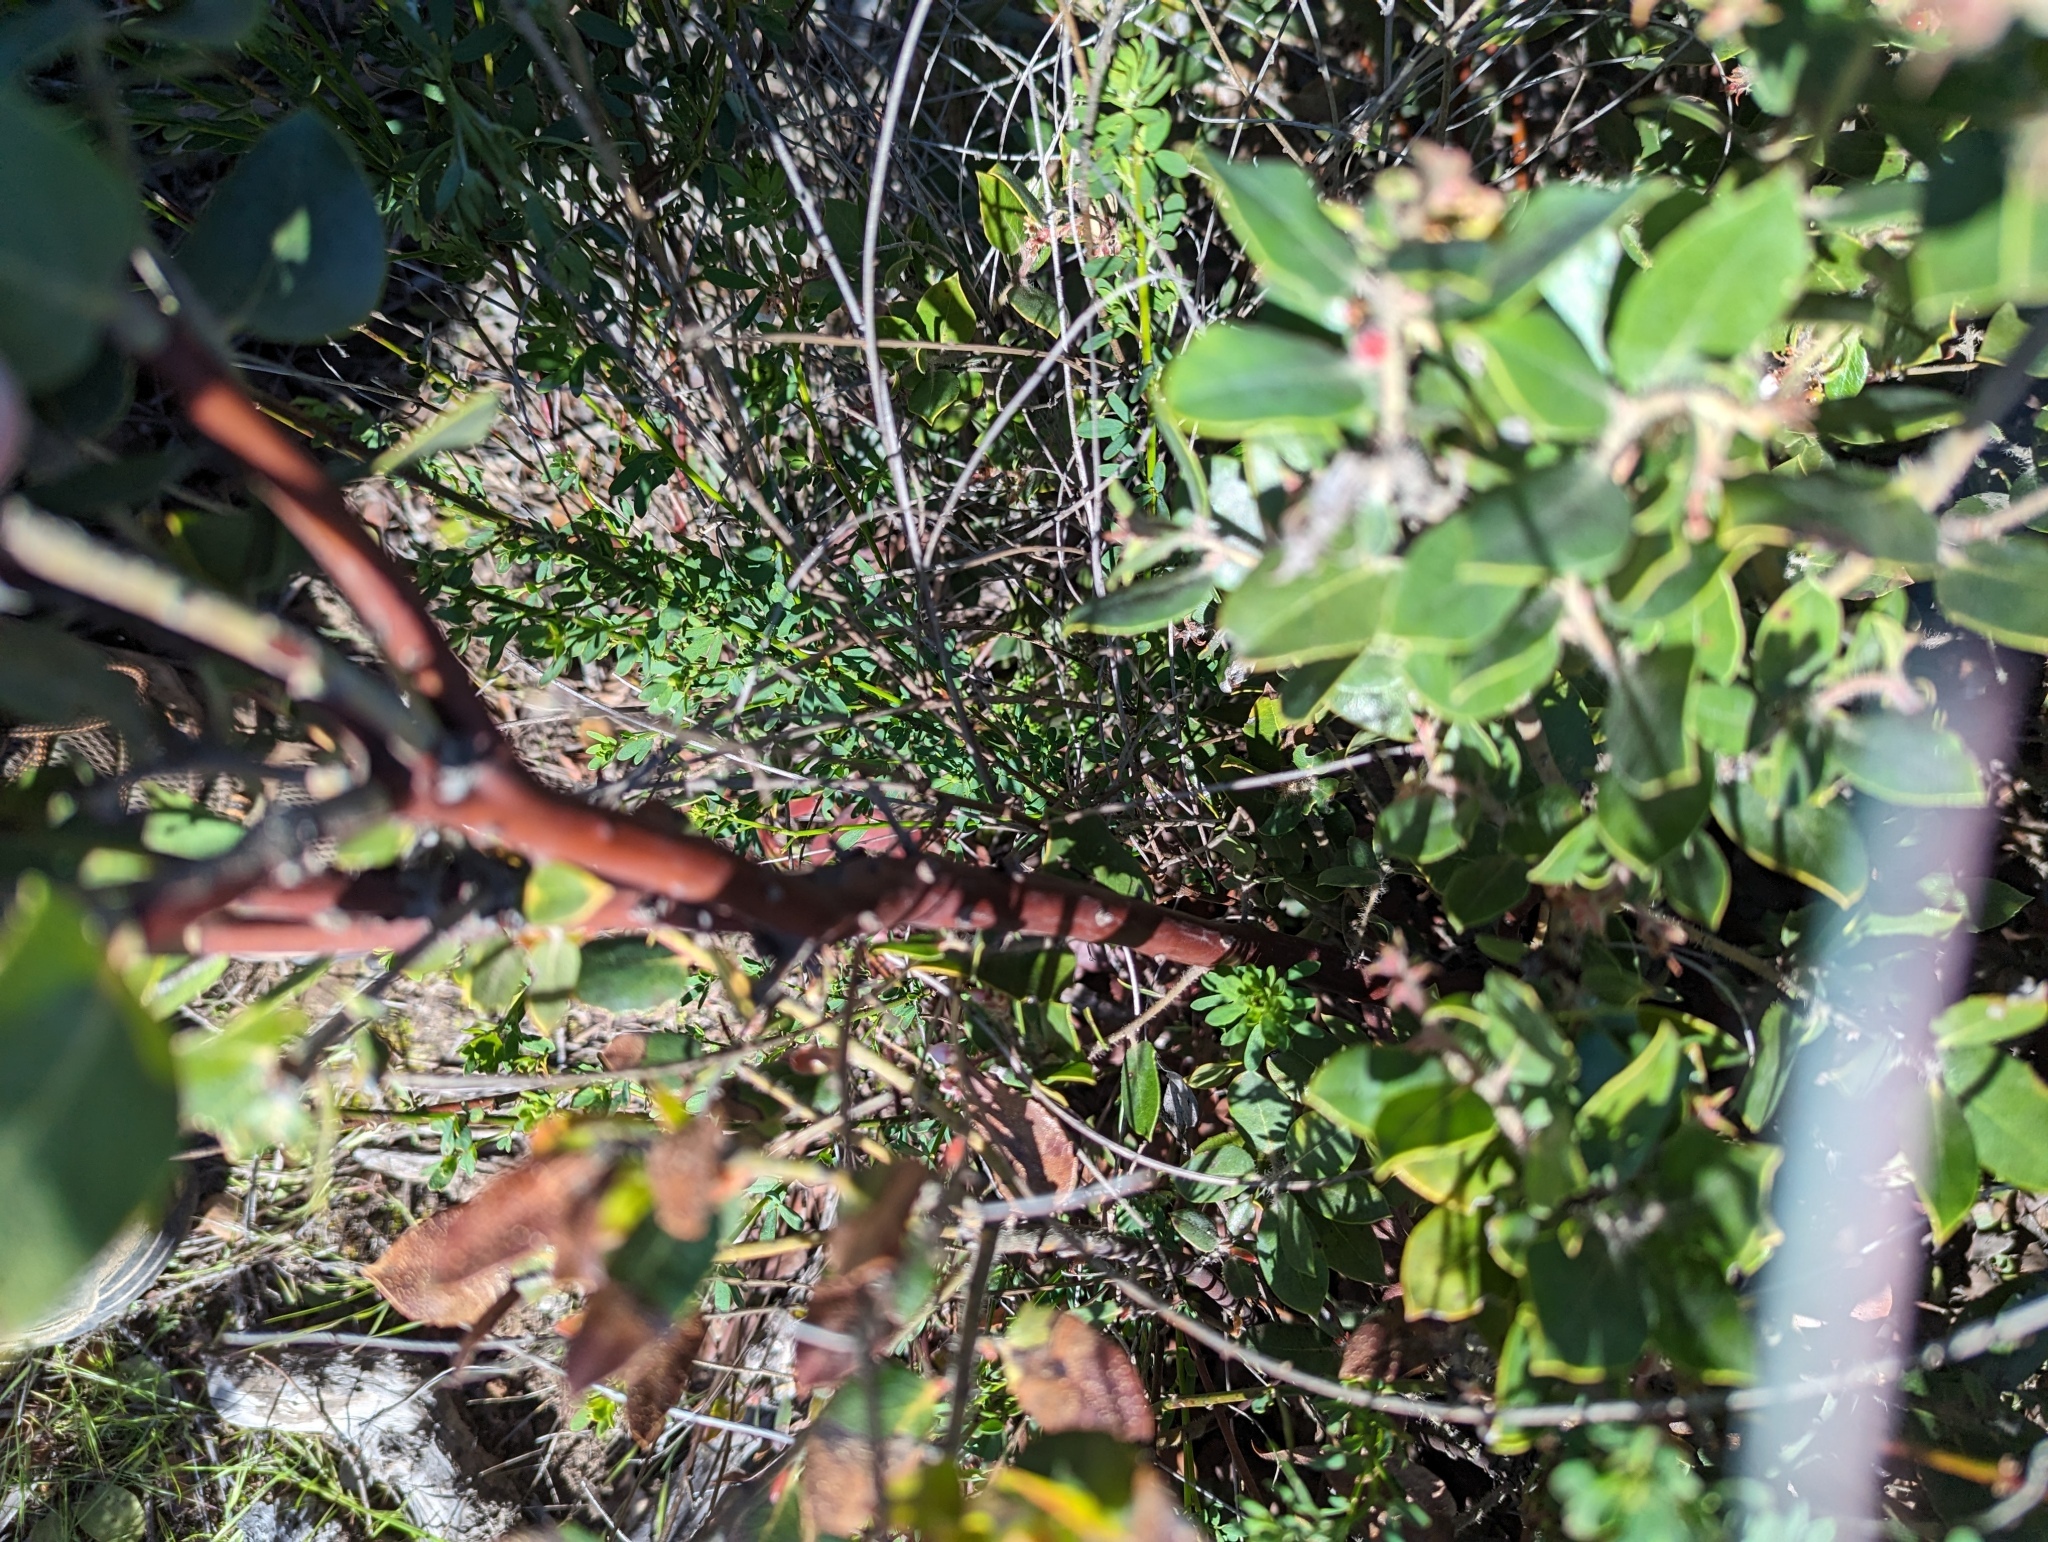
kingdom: Plantae
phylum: Tracheophyta
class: Magnoliopsida
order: Ericales
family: Ericaceae
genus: Arctostaphylos
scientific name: Arctostaphylos crustacea
